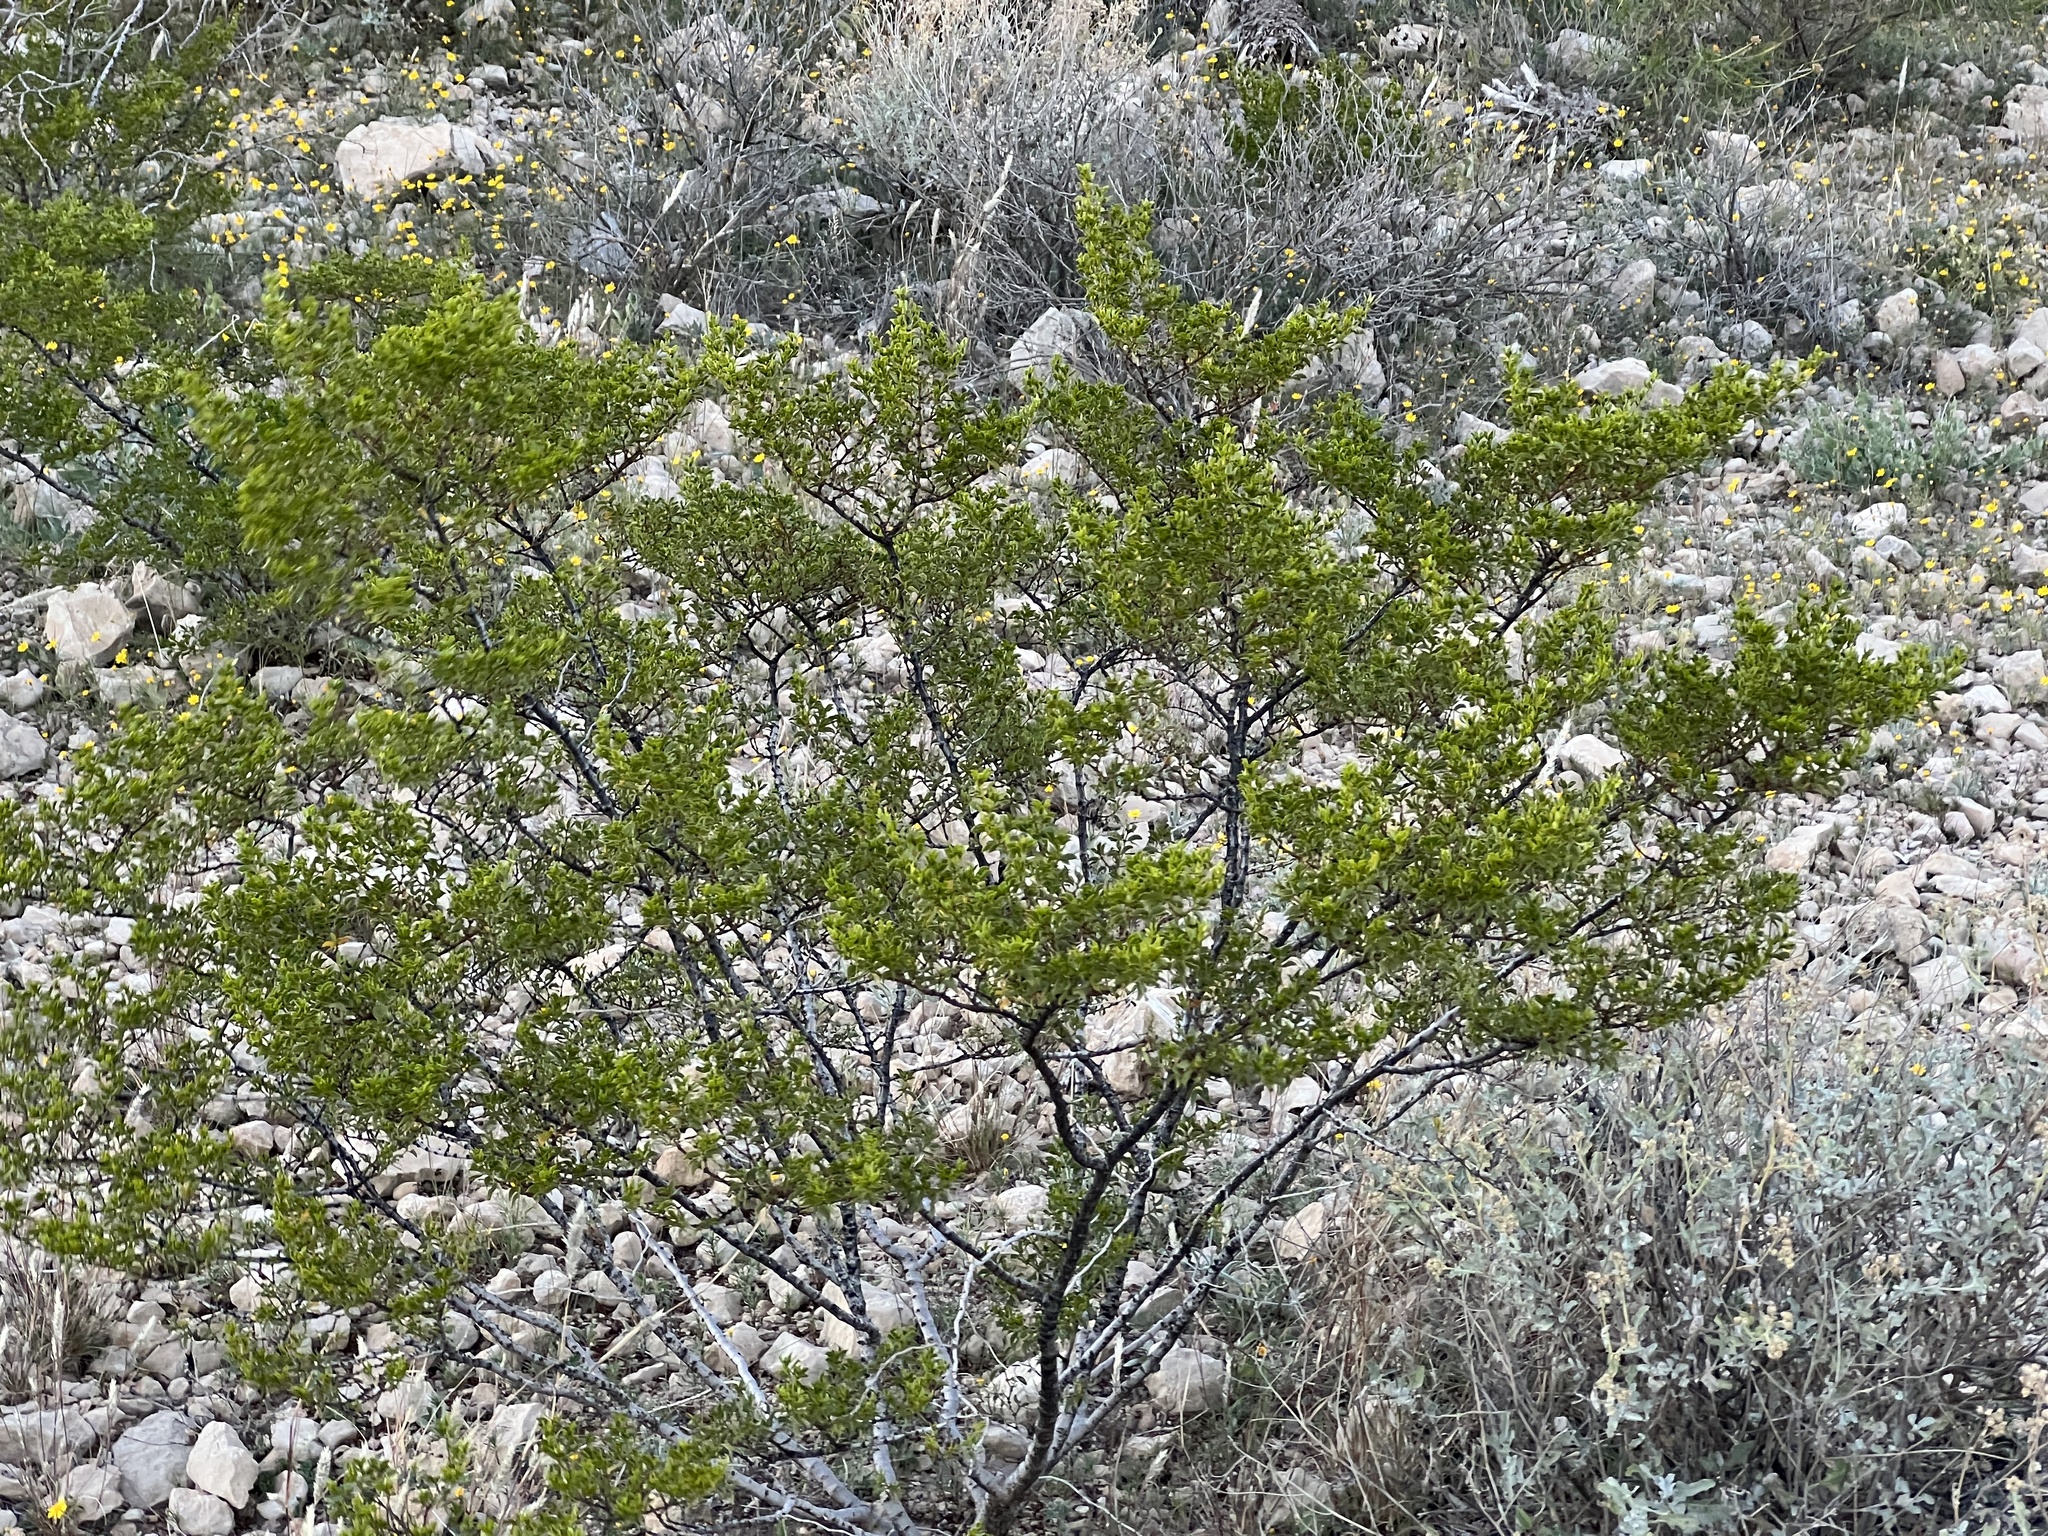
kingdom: Plantae
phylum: Tracheophyta
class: Magnoliopsida
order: Zygophyllales
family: Zygophyllaceae
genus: Larrea
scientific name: Larrea tridentata
